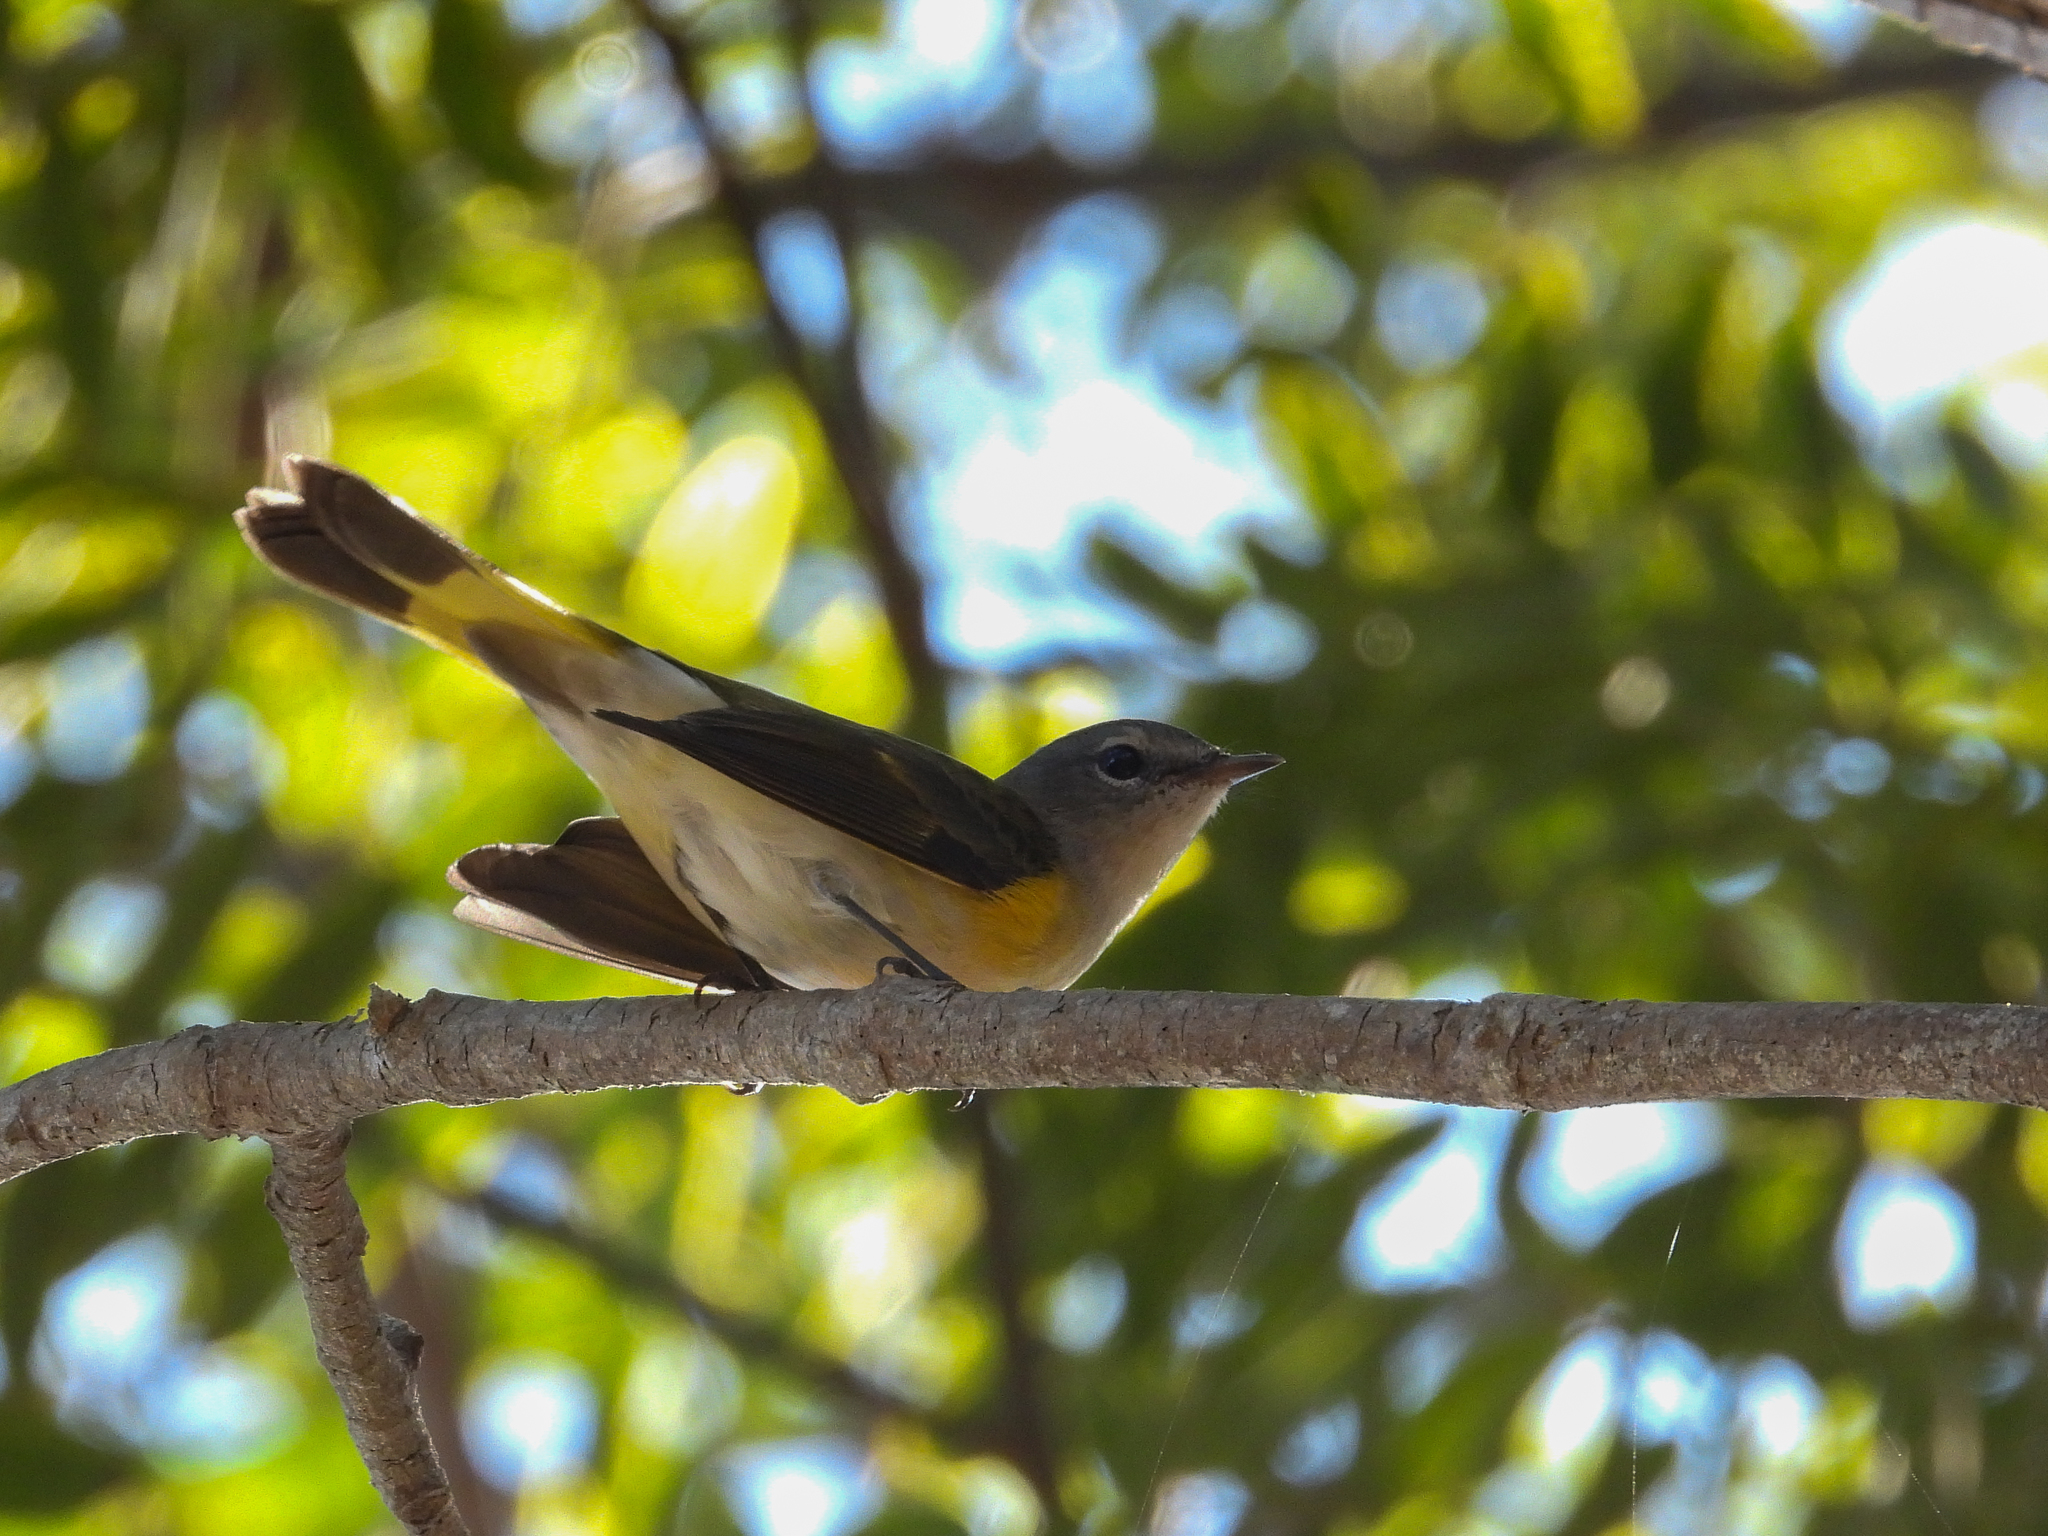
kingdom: Animalia
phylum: Chordata
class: Aves
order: Passeriformes
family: Parulidae
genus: Setophaga
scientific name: Setophaga ruticilla
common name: American redstart
